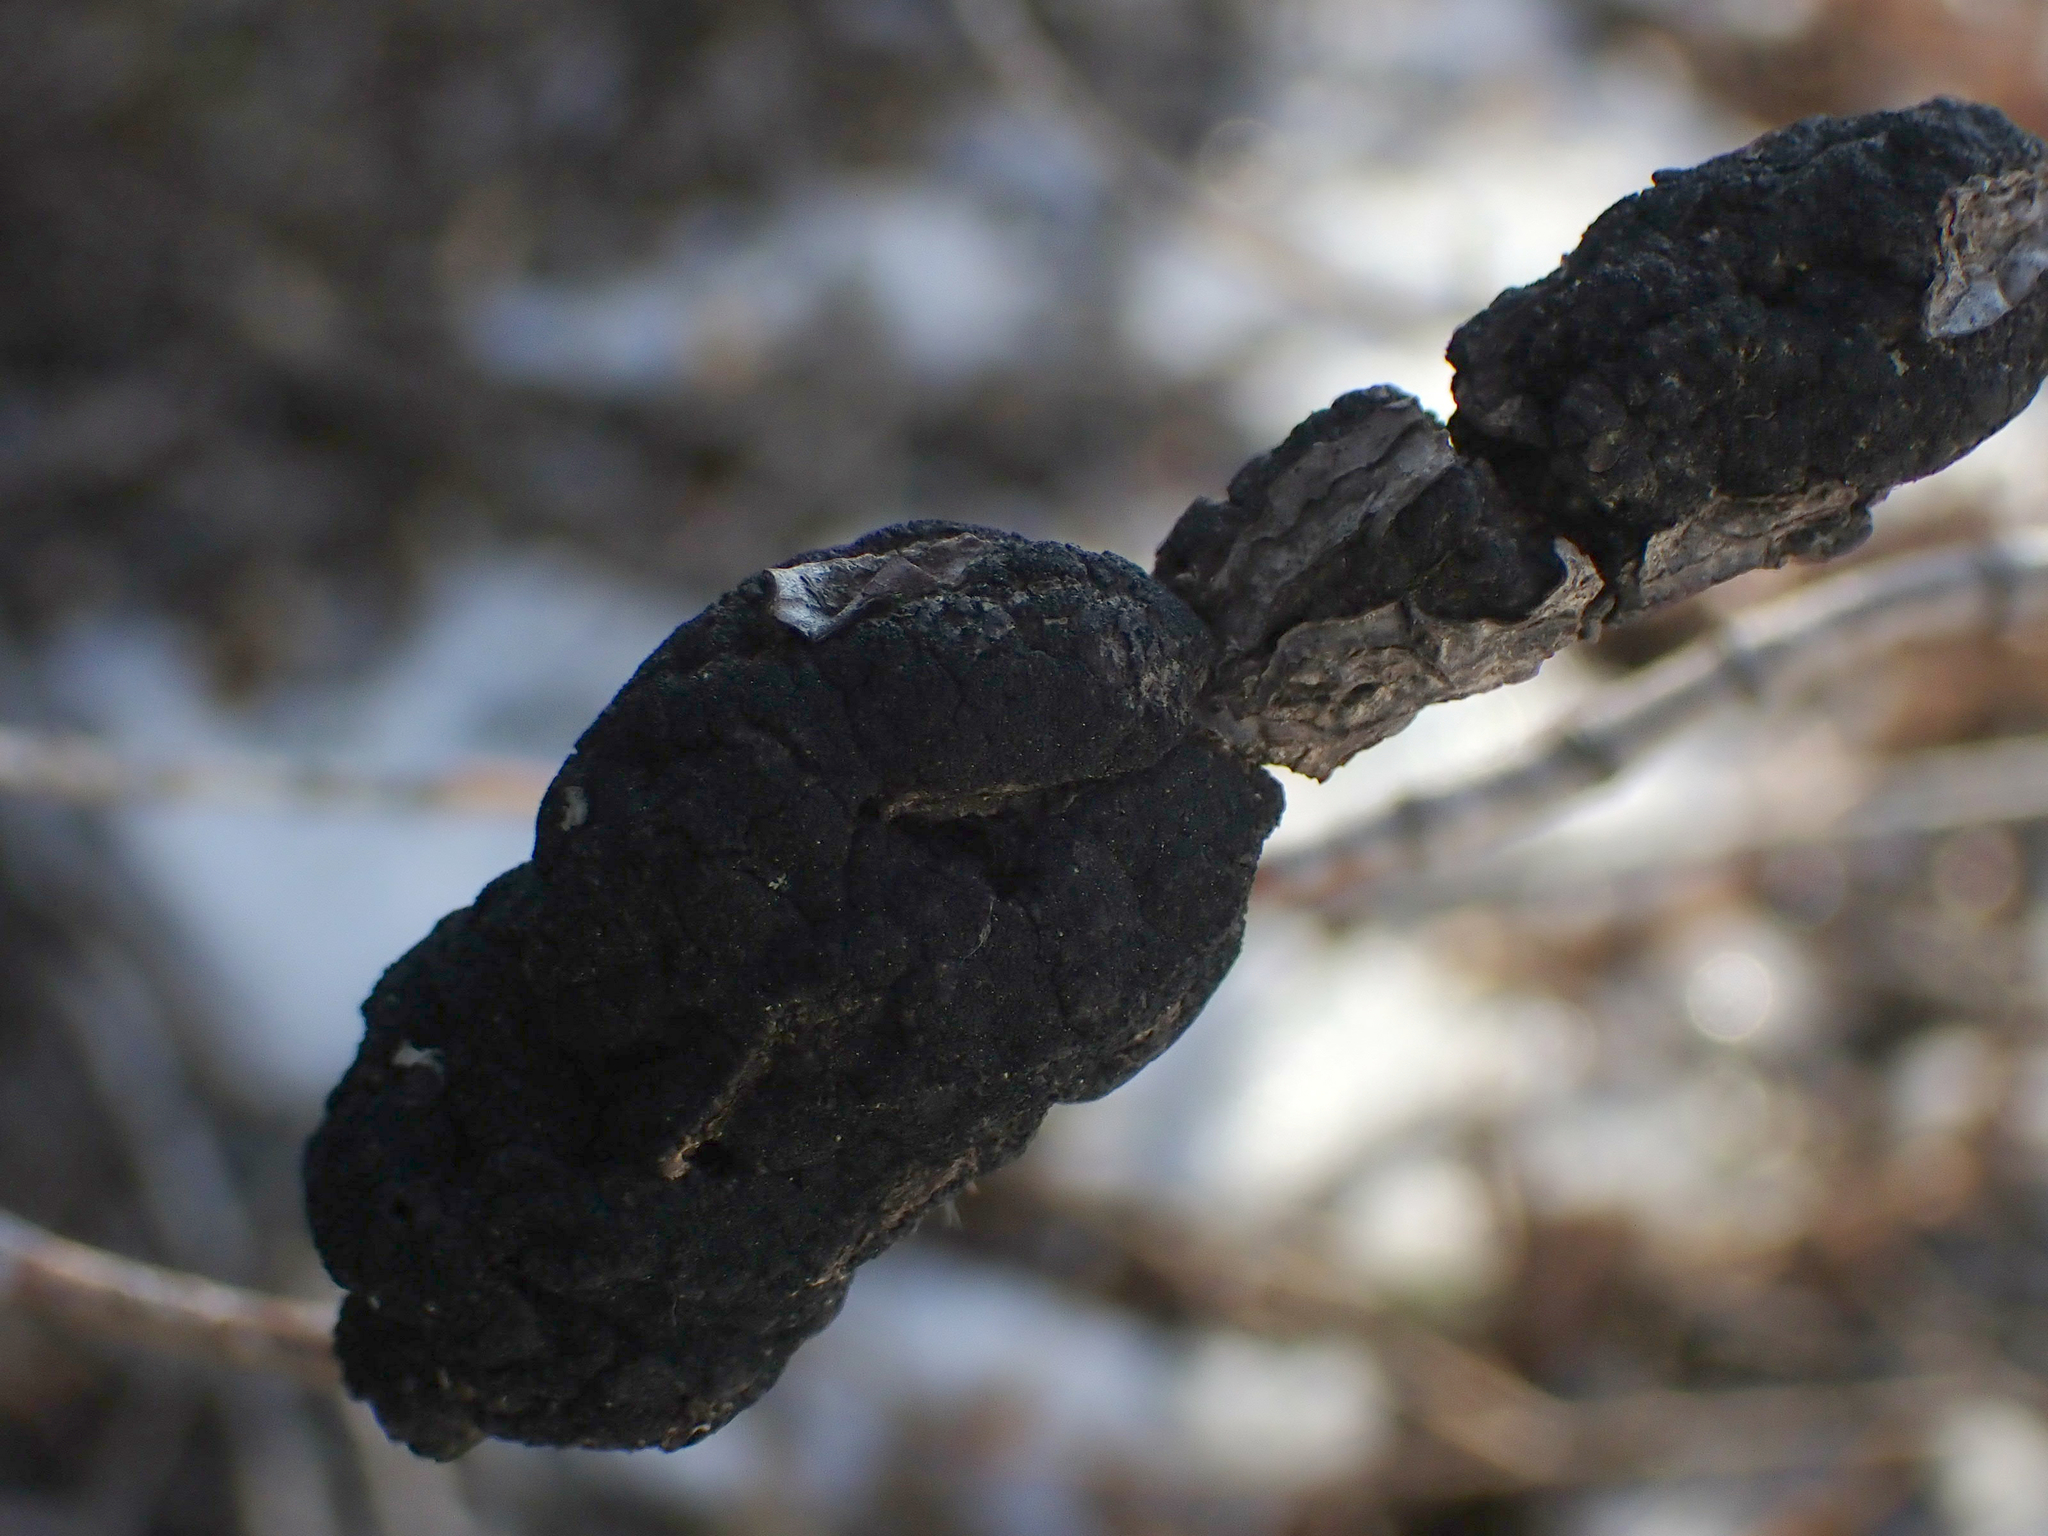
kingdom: Fungi
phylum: Ascomycota
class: Dothideomycetes
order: Venturiales
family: Venturiaceae
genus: Apiosporina
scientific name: Apiosporina morbosa
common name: Black knot
